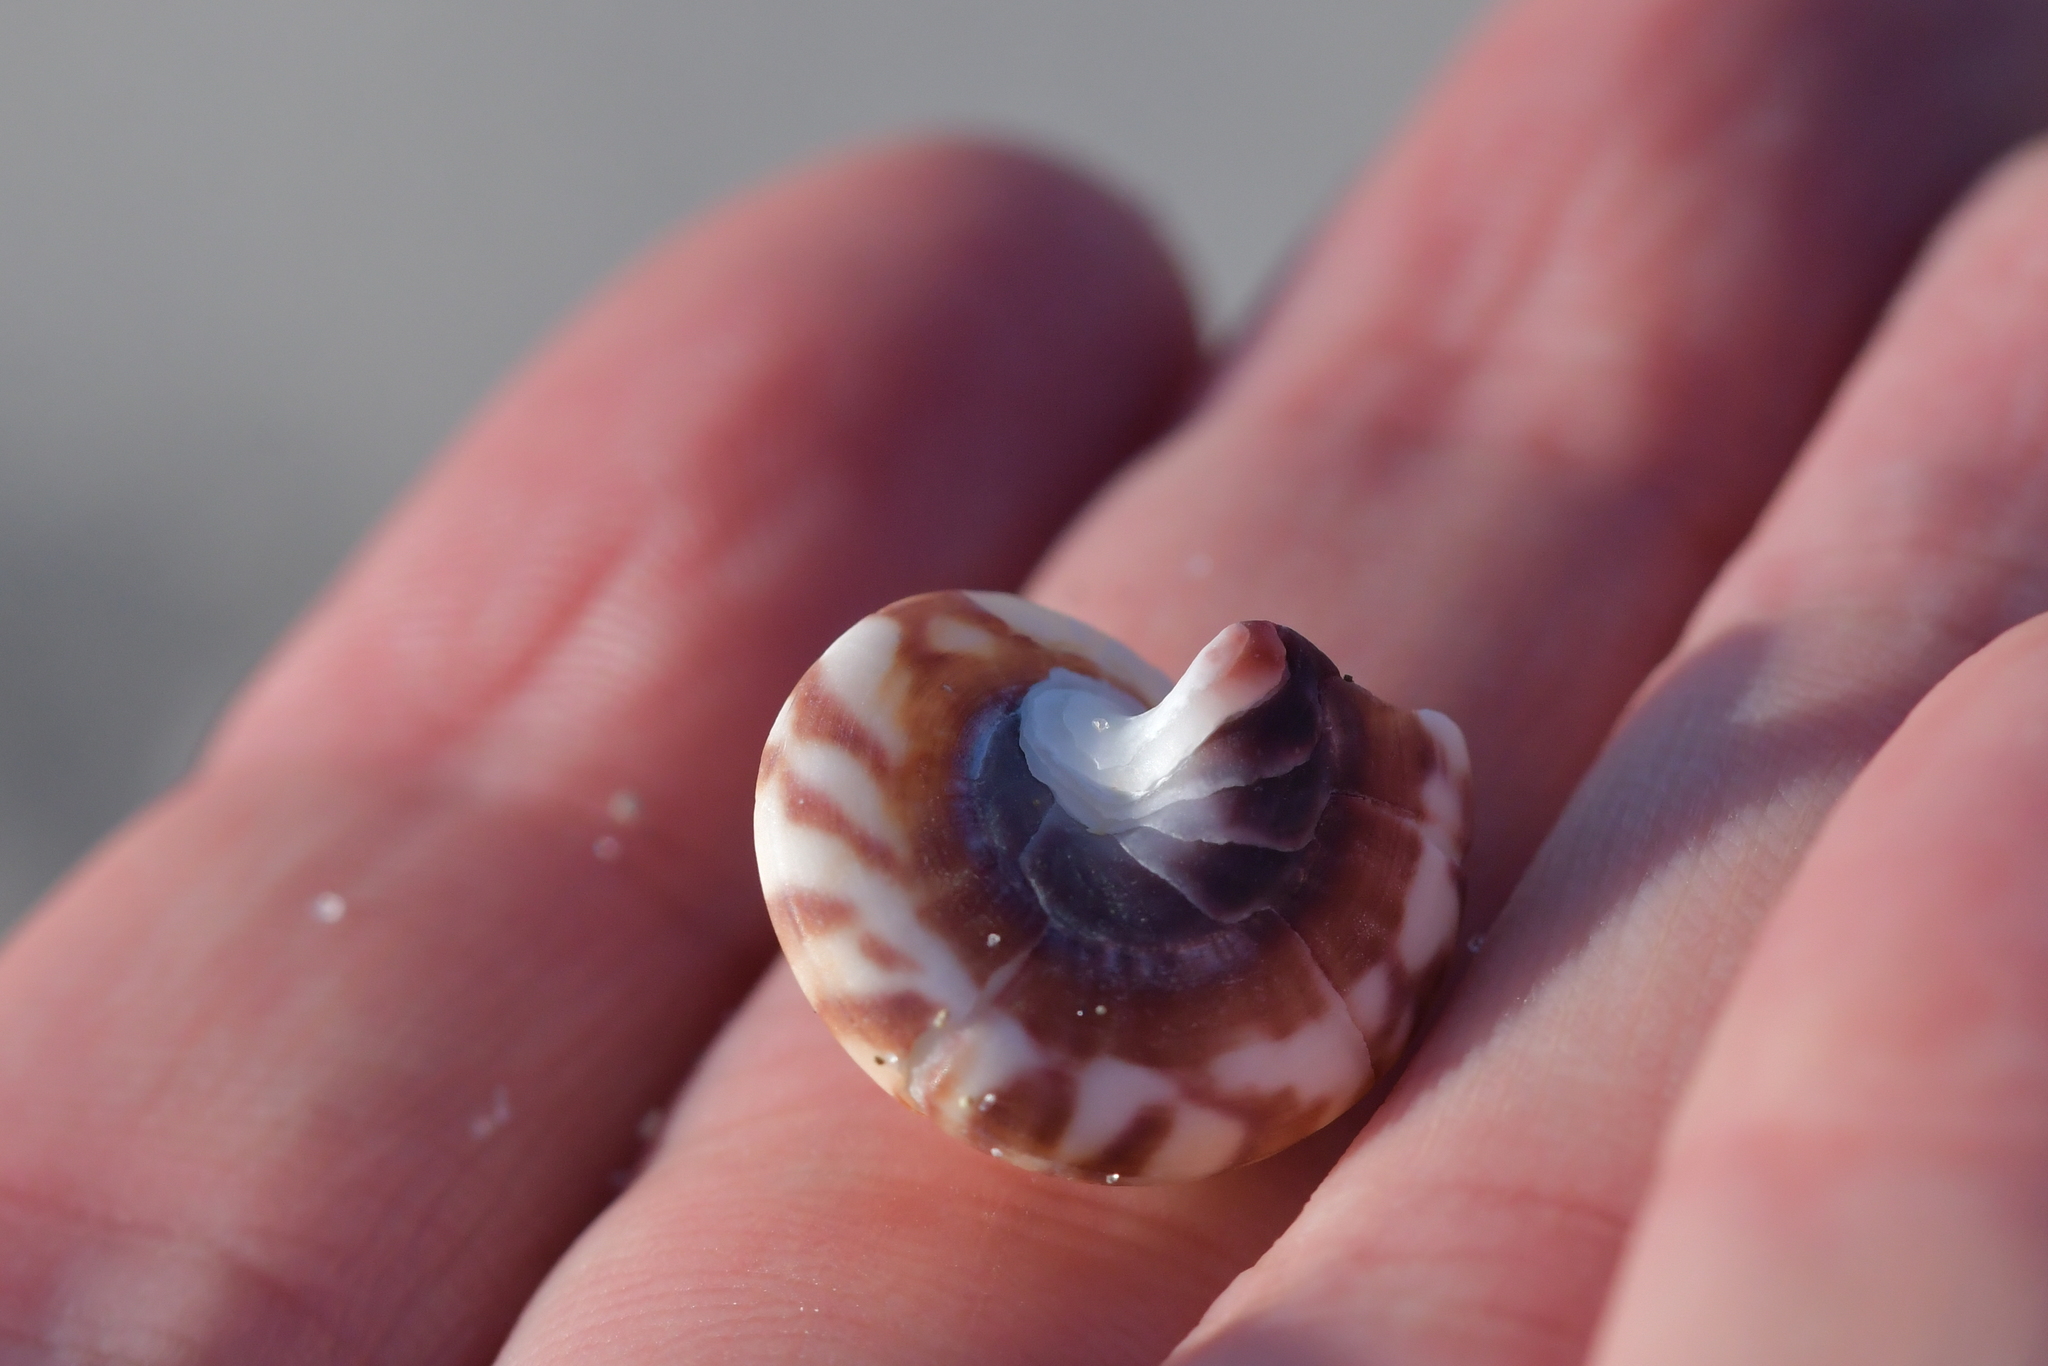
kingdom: Animalia
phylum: Mollusca
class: Gastropoda
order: Trochida
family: Trochidae
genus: Zethalia
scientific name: Zethalia zelandica
